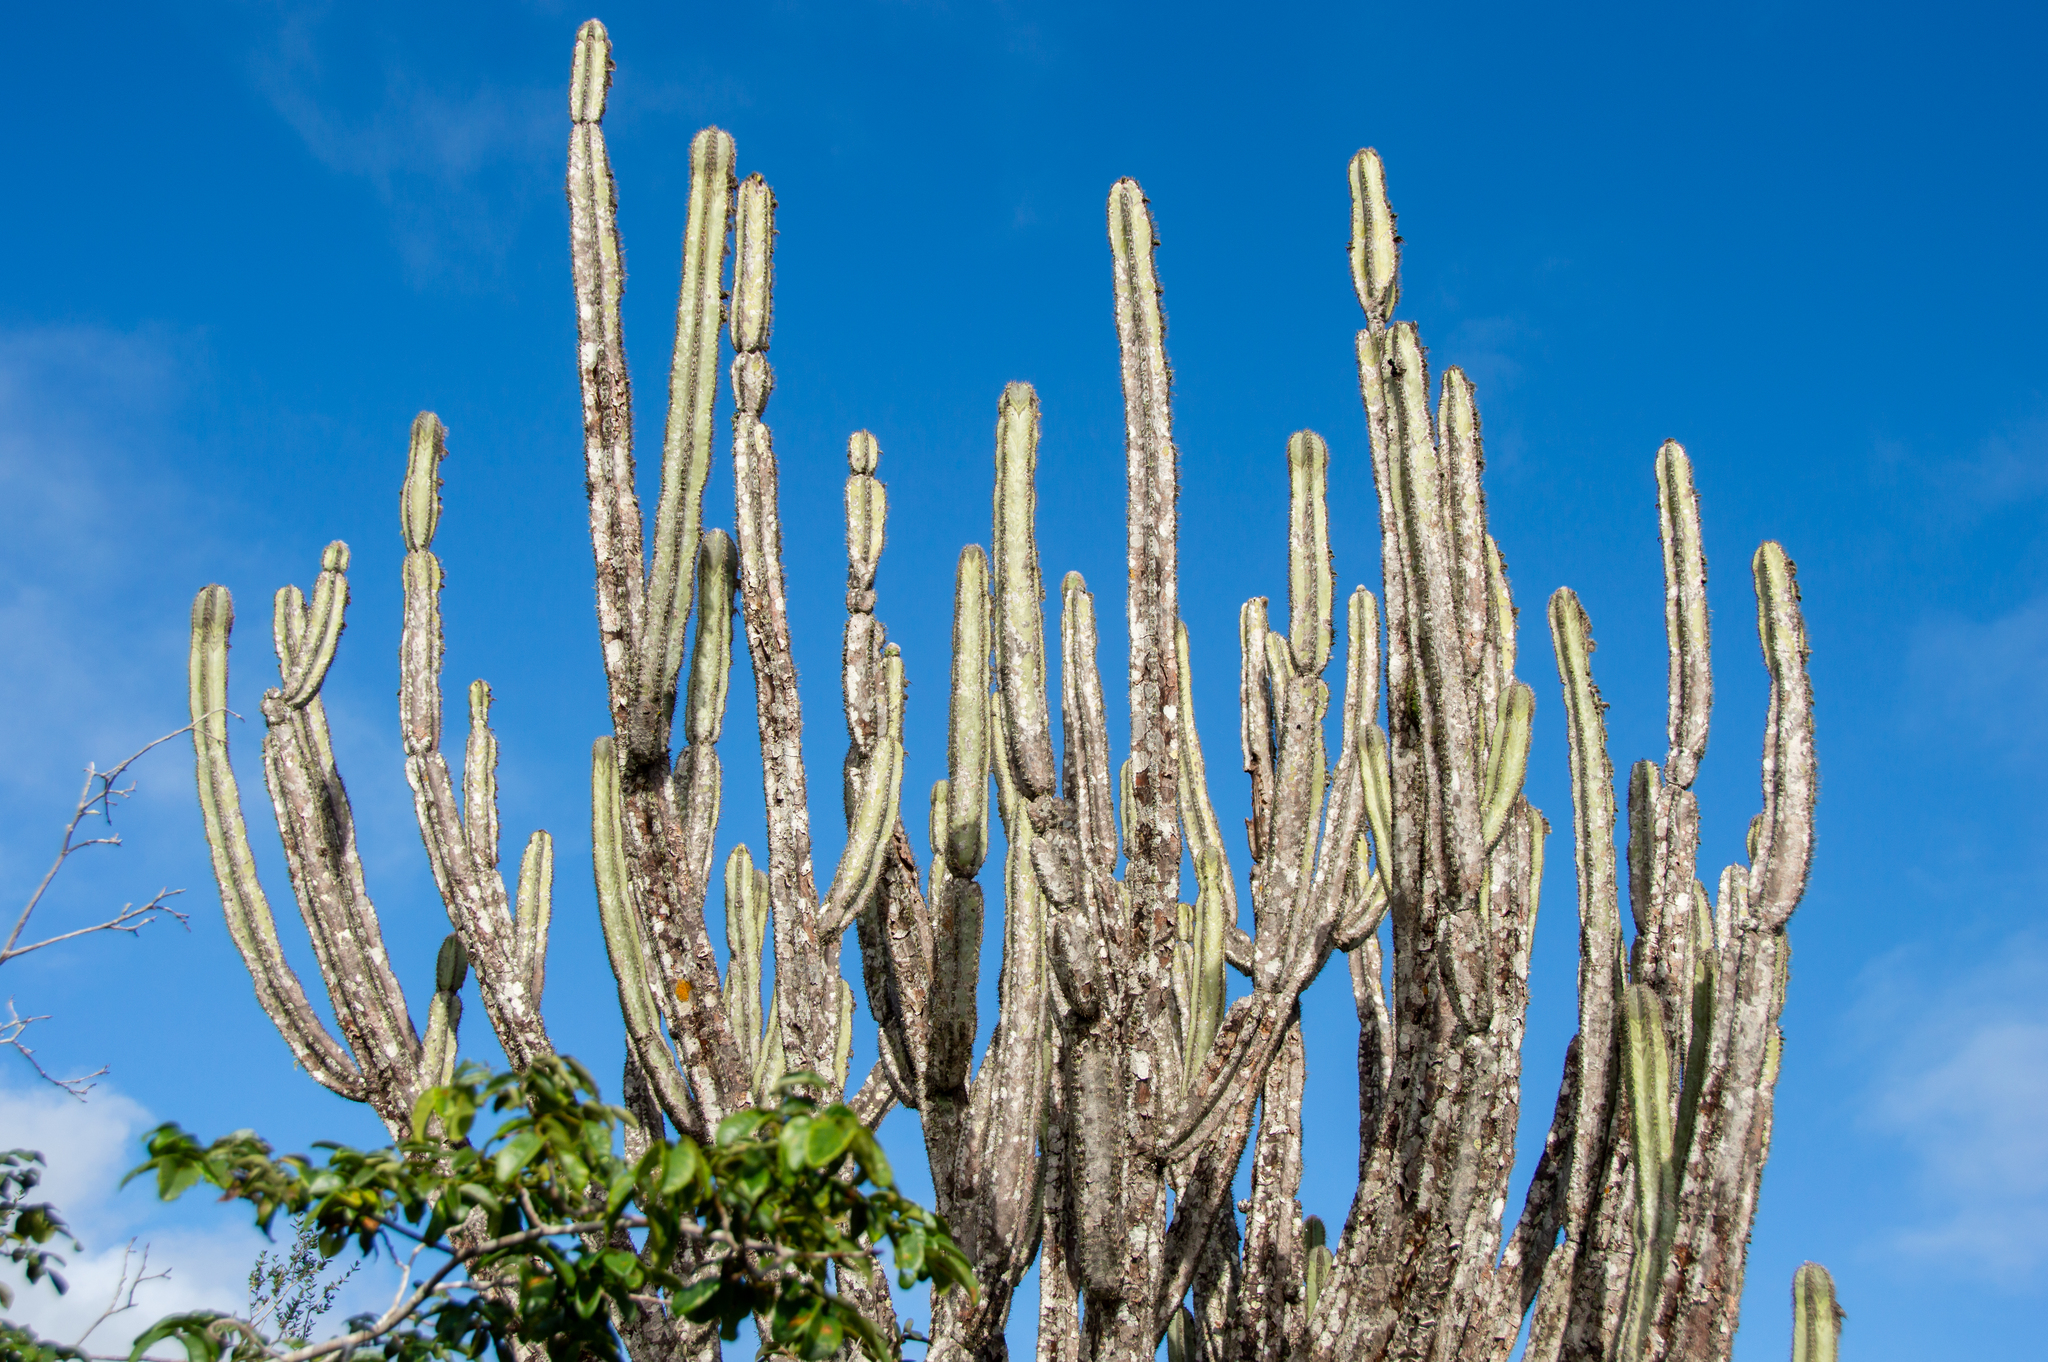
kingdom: Plantae
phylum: Tracheophyta
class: Magnoliopsida
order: Caryophyllales
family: Cactaceae
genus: Pilosocereus
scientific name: Pilosocereus catingicola
